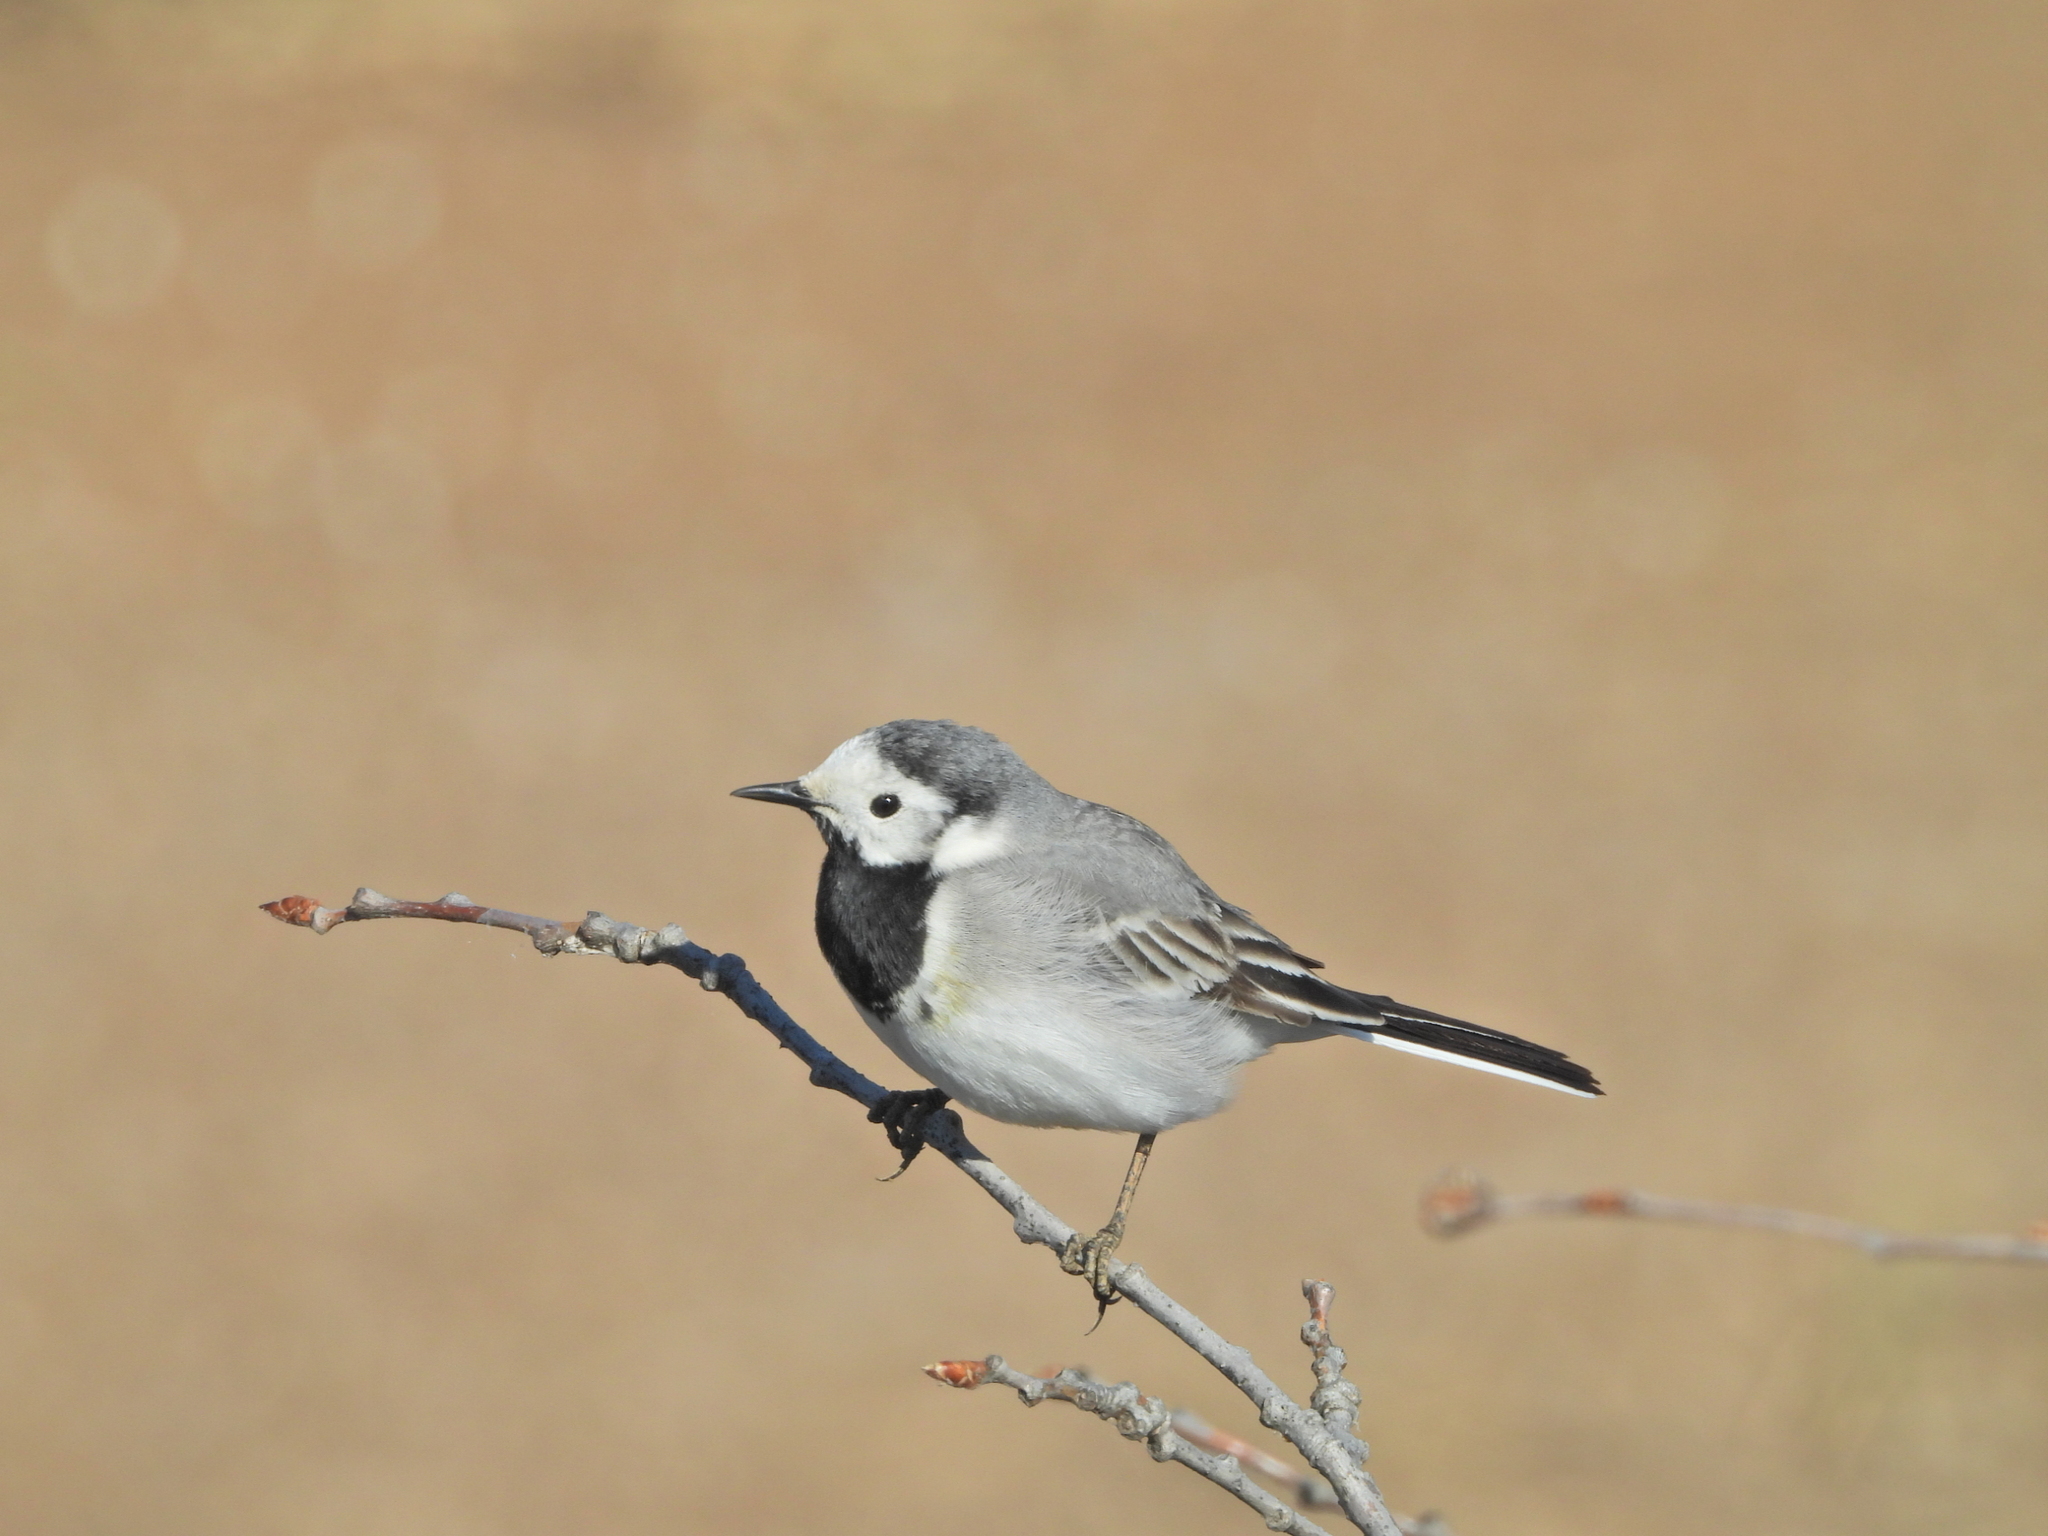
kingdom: Animalia
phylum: Chordata
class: Aves
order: Passeriformes
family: Motacillidae
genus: Motacilla
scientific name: Motacilla alba
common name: White wagtail
